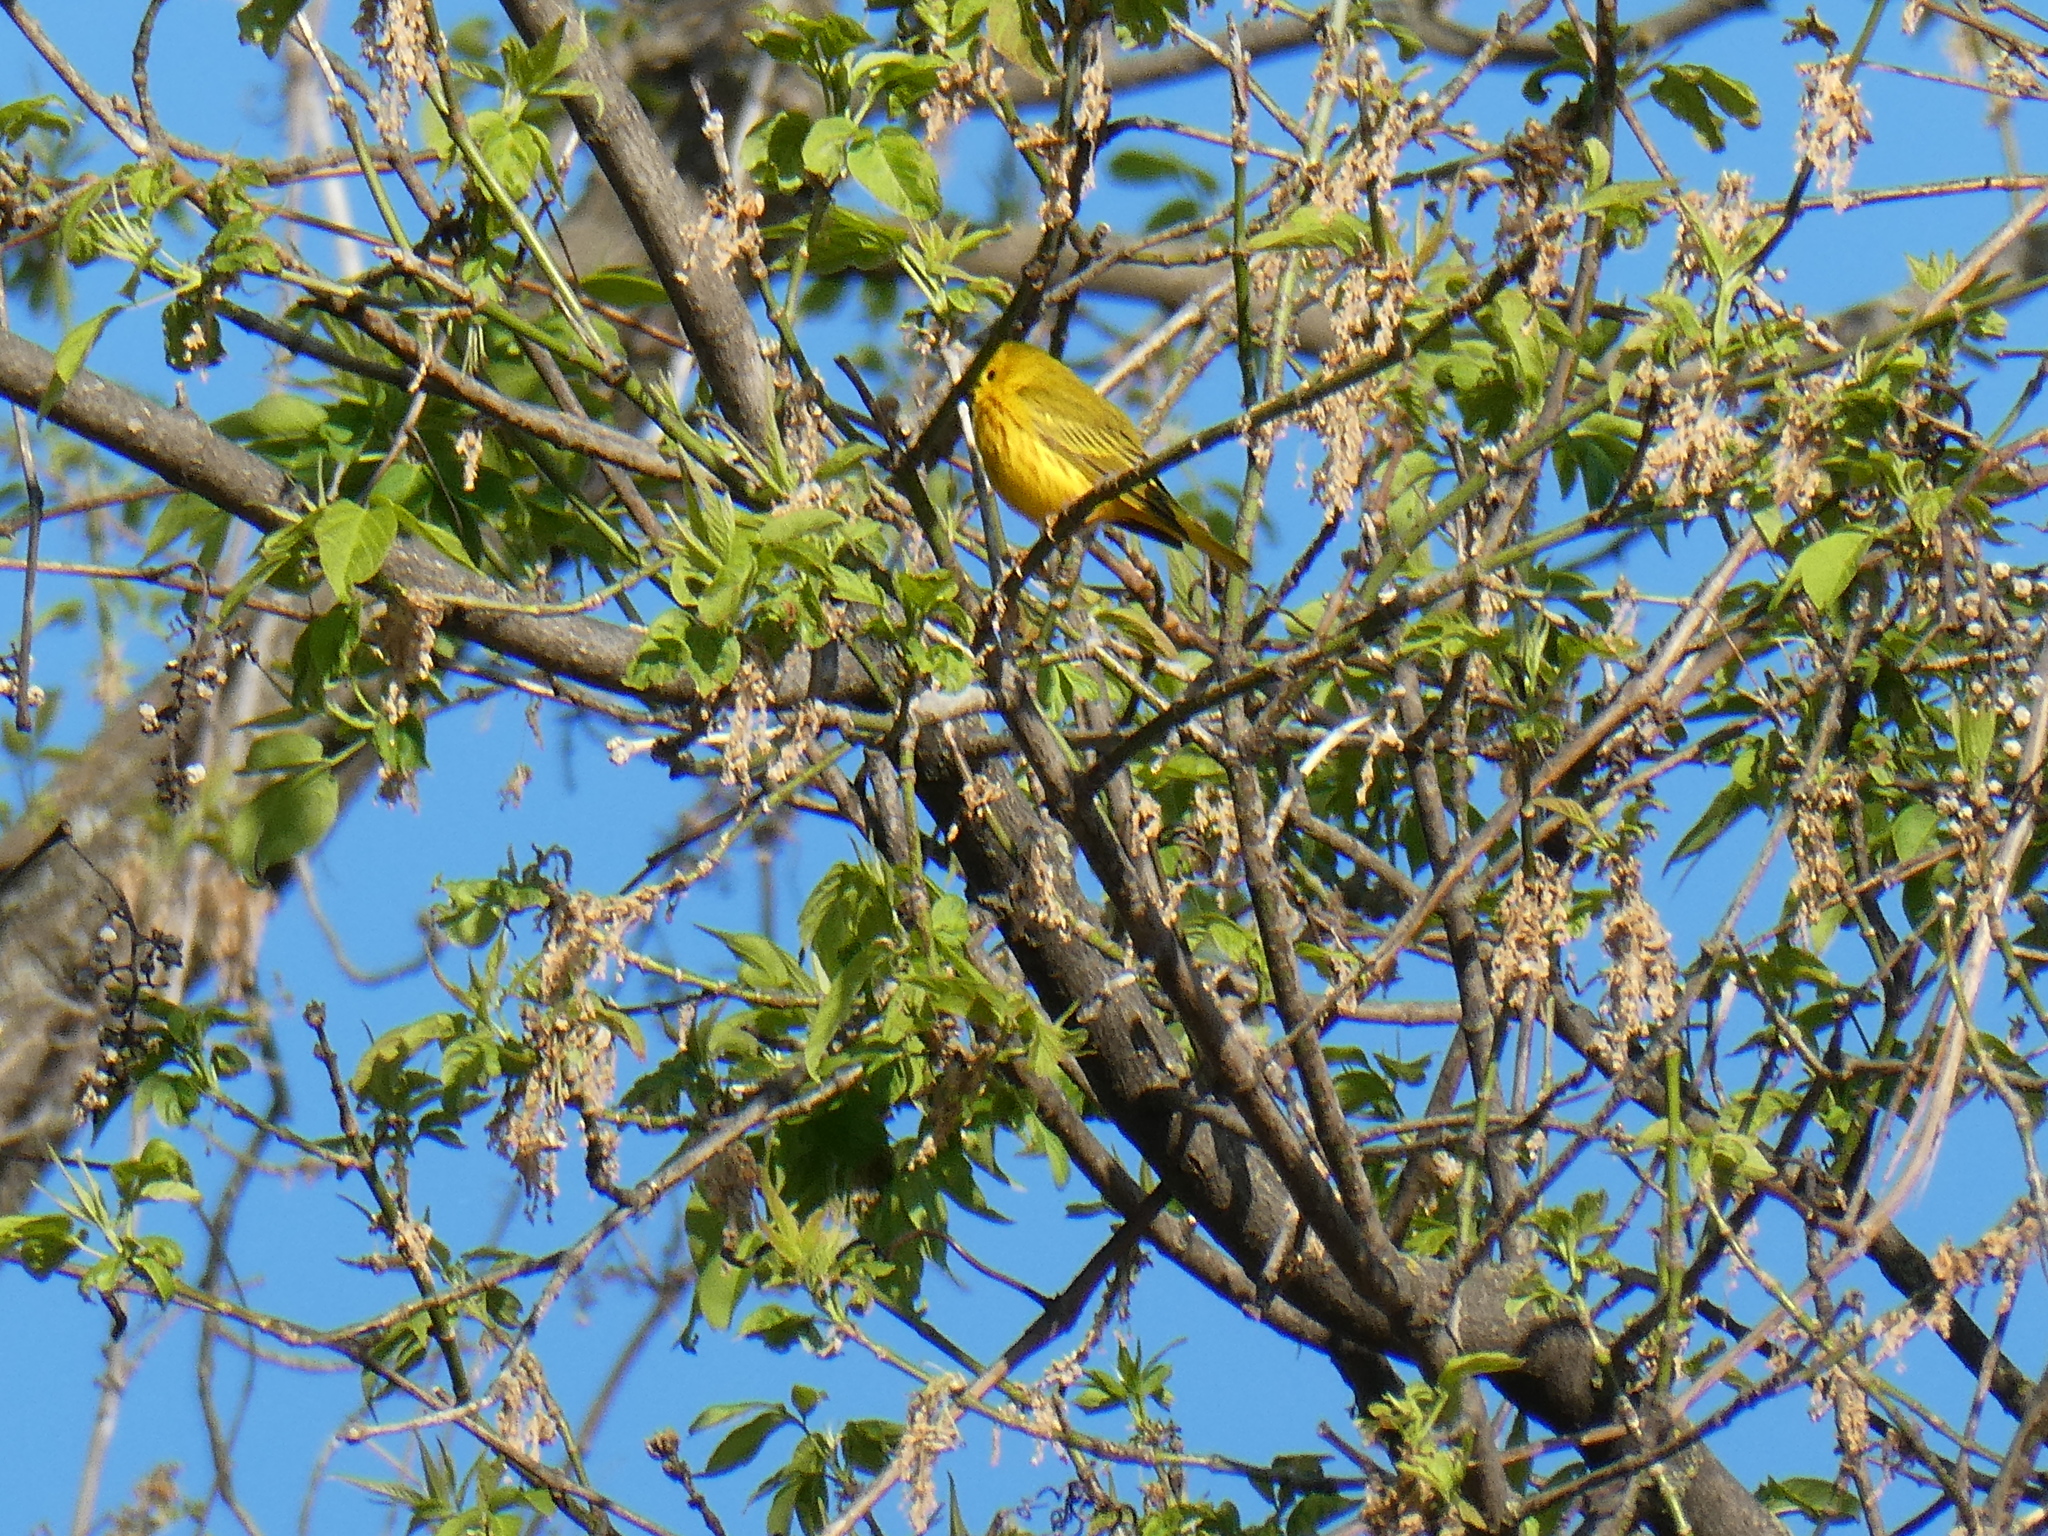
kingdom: Animalia
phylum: Chordata
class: Aves
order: Passeriformes
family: Parulidae
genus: Setophaga
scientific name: Setophaga petechia
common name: Yellow warbler
